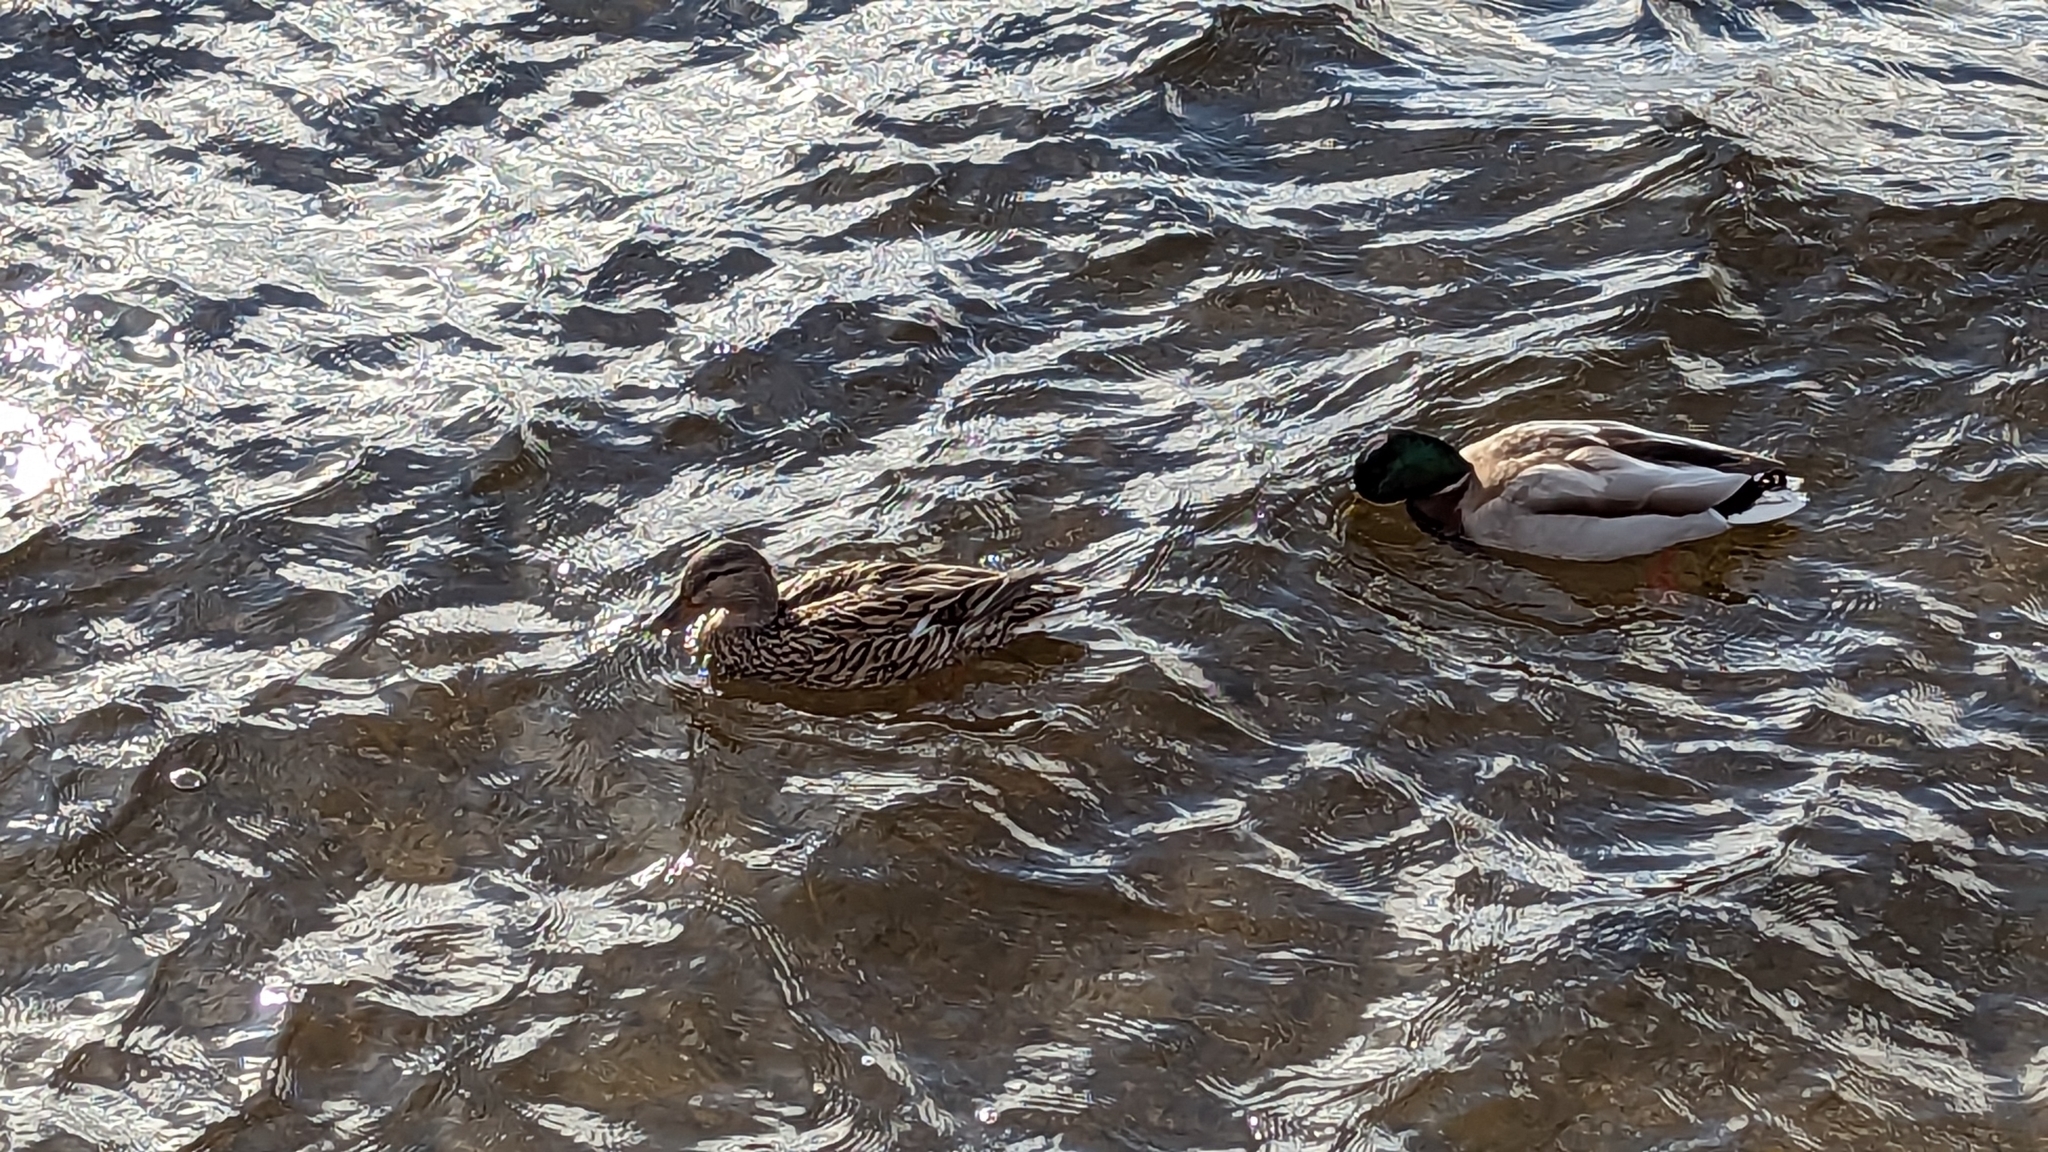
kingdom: Animalia
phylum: Chordata
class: Aves
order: Anseriformes
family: Anatidae
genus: Anas
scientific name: Anas platyrhynchos
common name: Mallard
